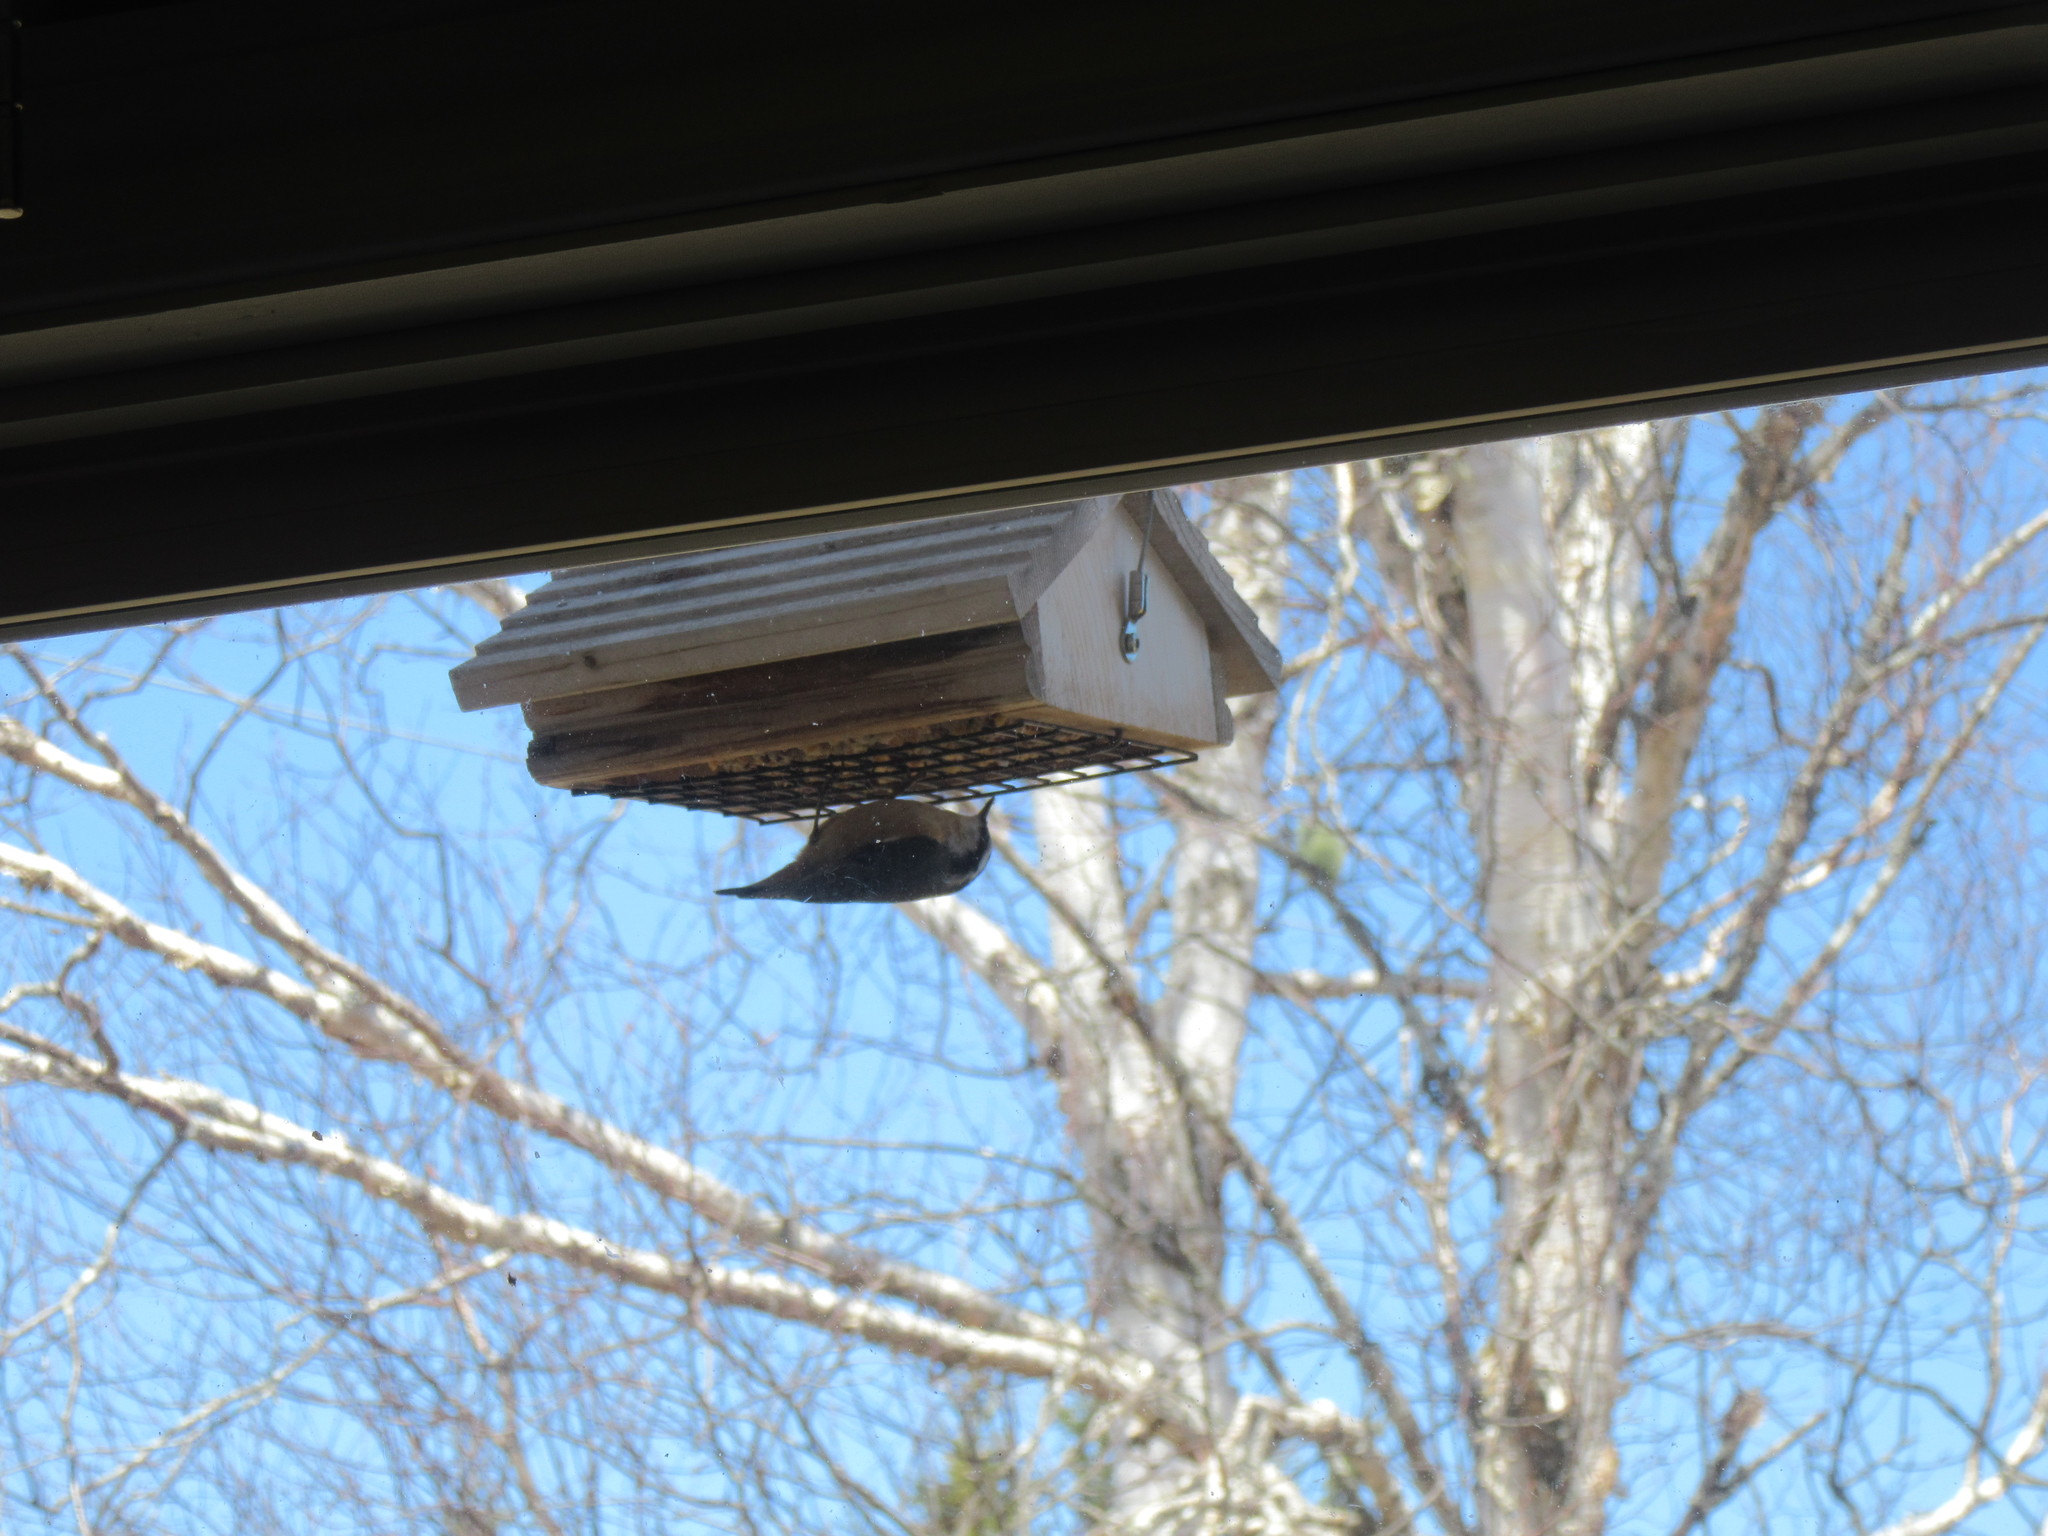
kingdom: Animalia
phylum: Chordata
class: Aves
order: Passeriformes
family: Sittidae
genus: Sitta
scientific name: Sitta canadensis
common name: Red-breasted nuthatch
